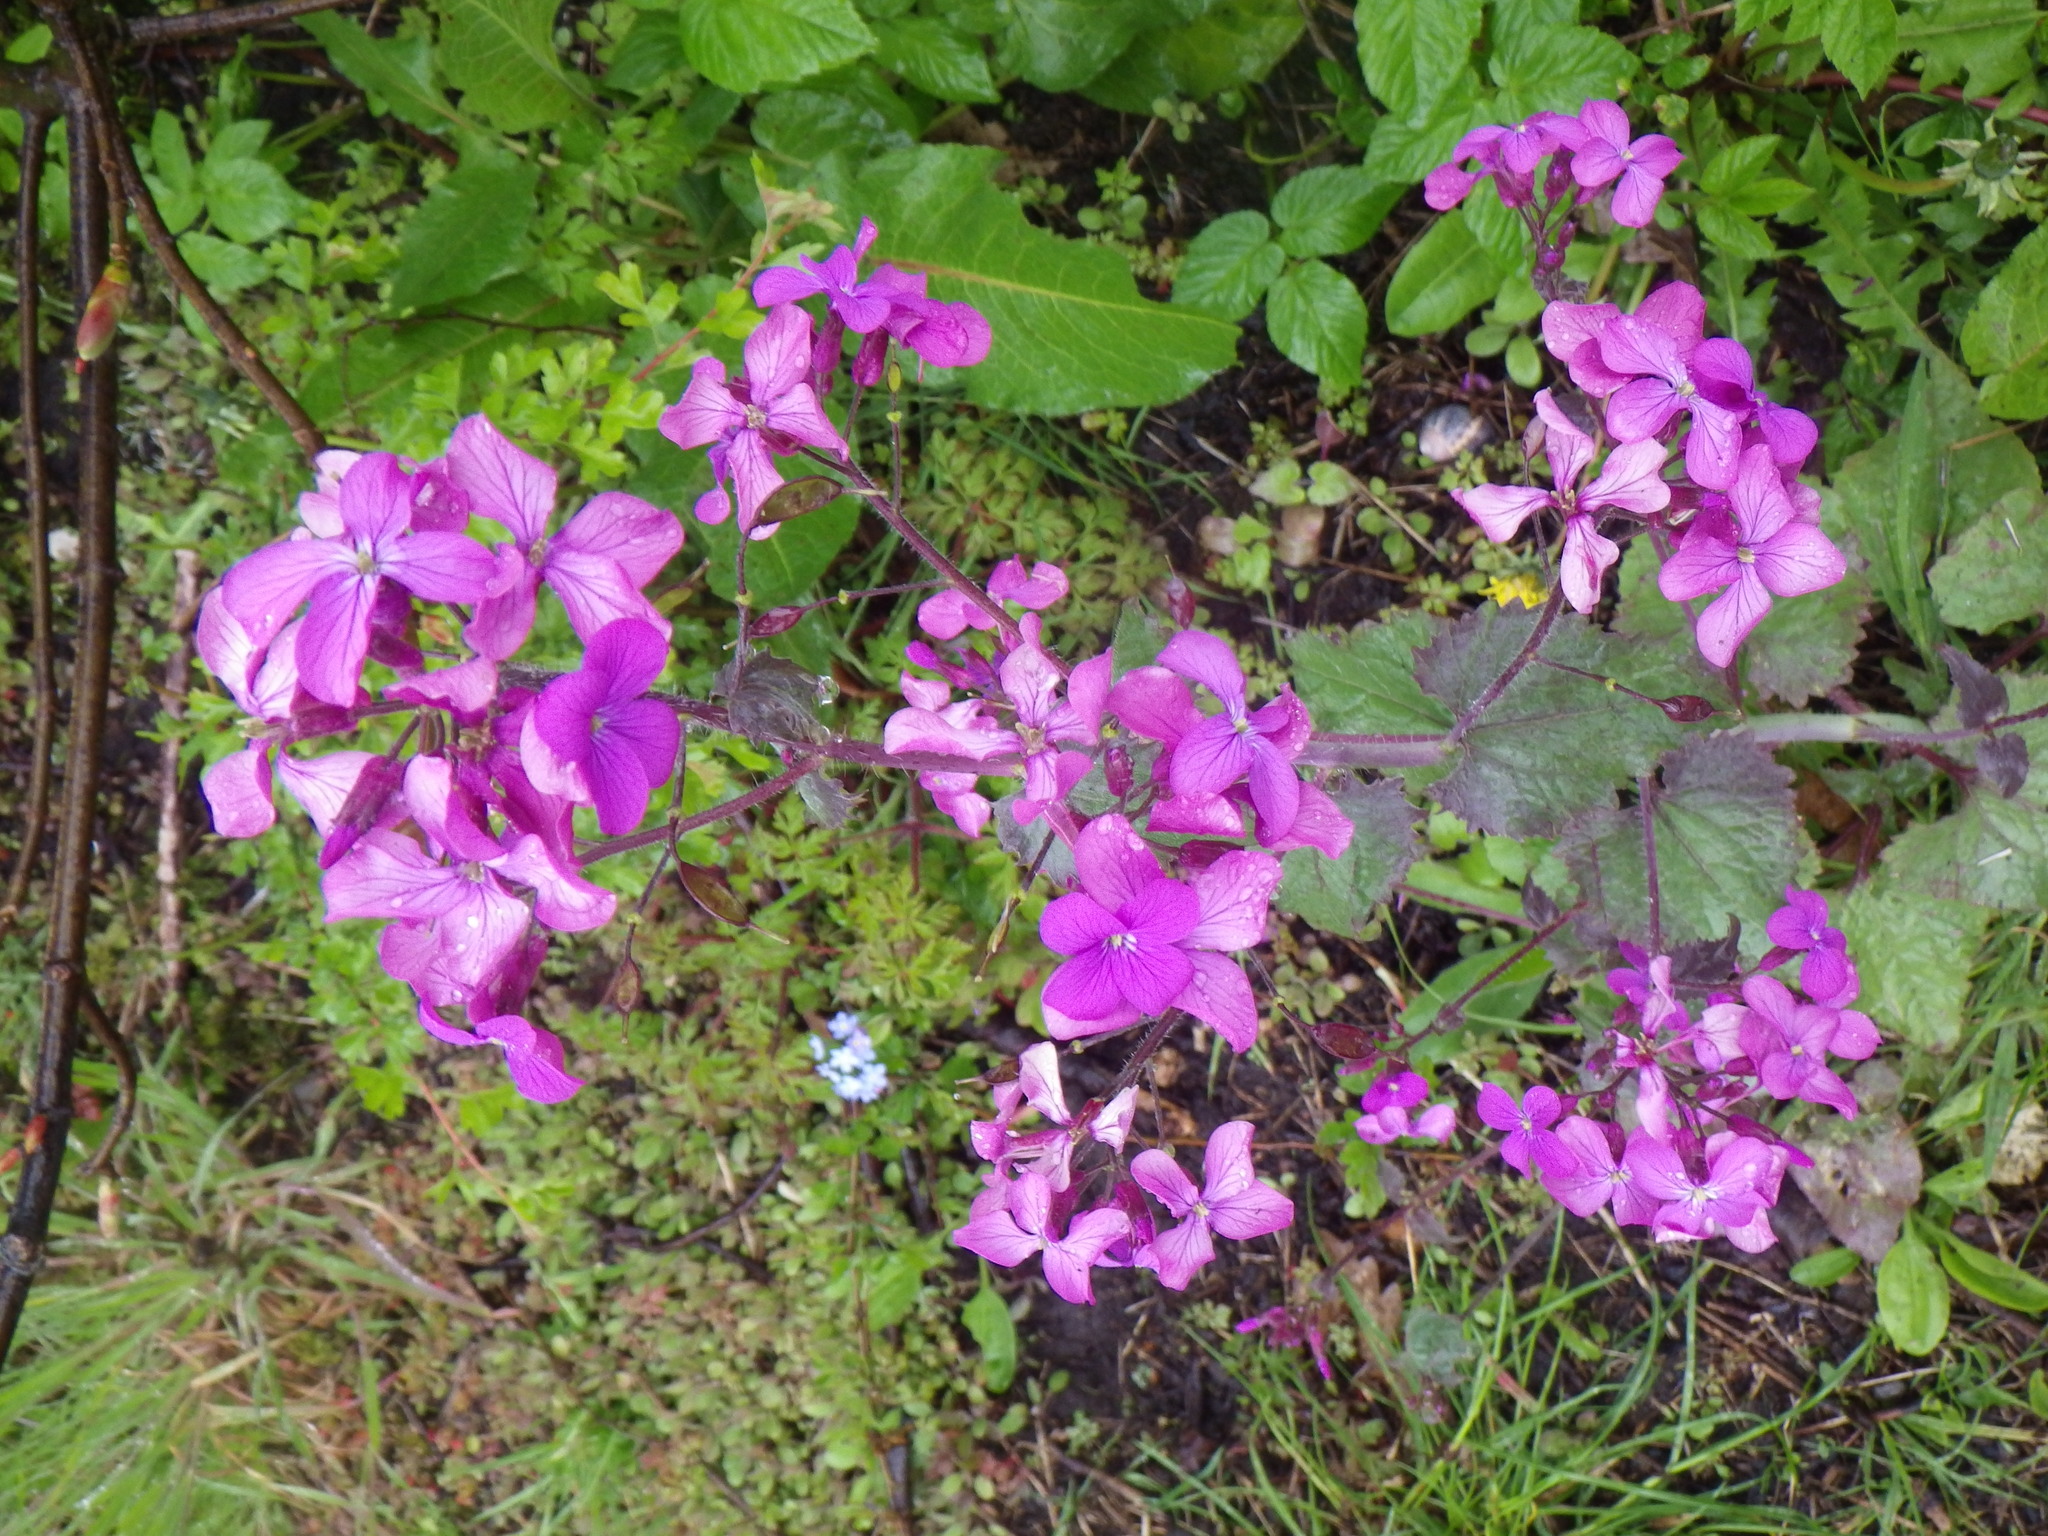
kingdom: Plantae
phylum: Tracheophyta
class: Magnoliopsida
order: Brassicales
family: Brassicaceae
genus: Lunaria
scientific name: Lunaria annua
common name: Honesty
